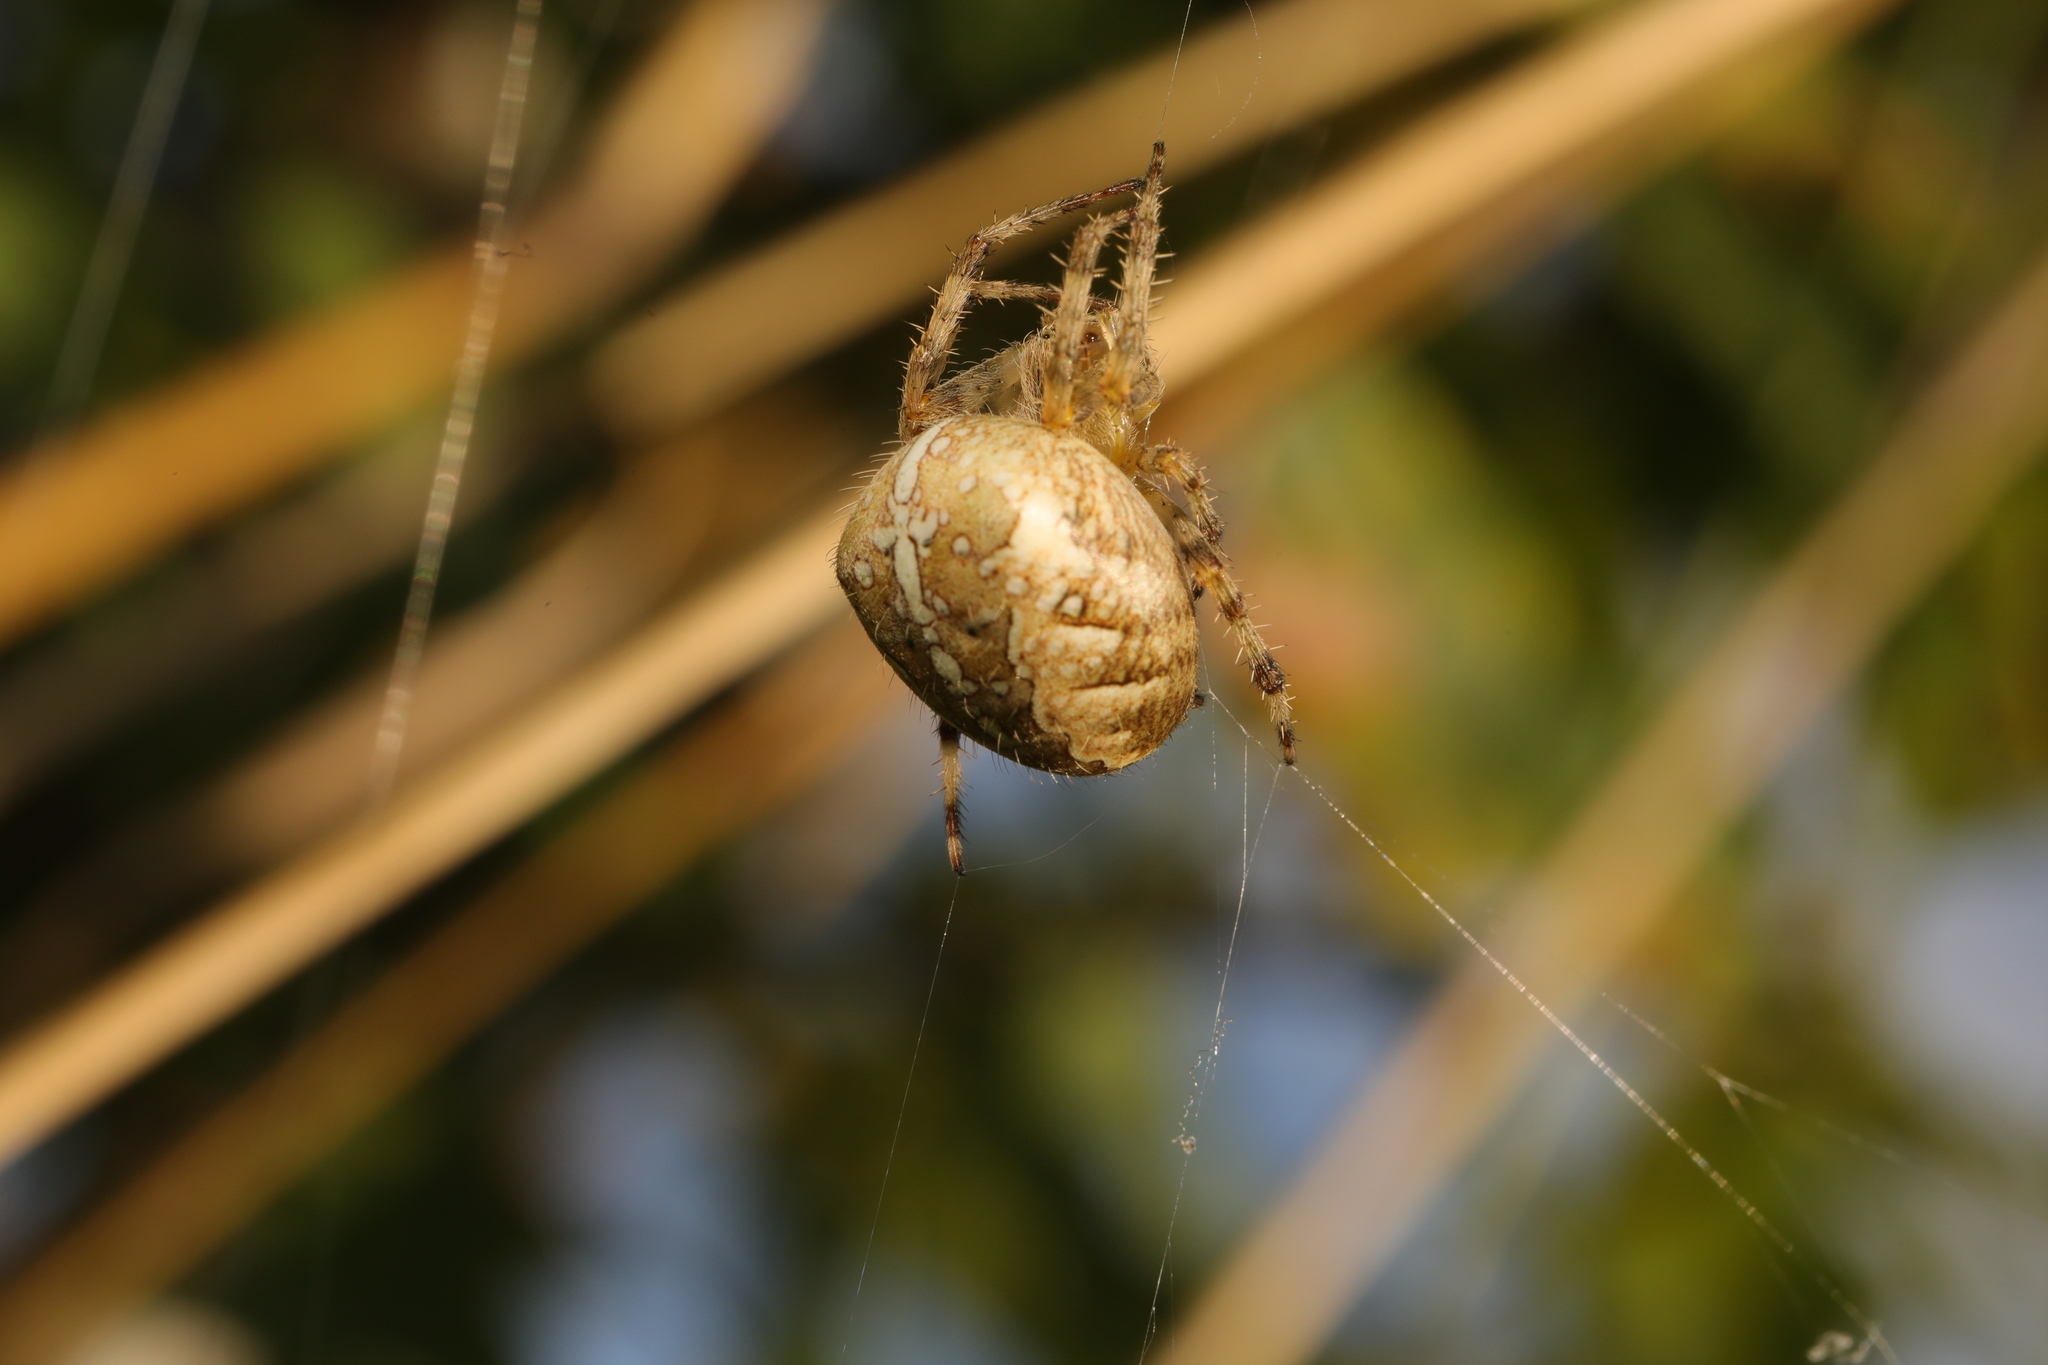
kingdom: Animalia
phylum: Arthropoda
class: Arachnida
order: Araneae
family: Araneidae
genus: Araneus
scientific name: Araneus diadematus
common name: Cross orbweaver
